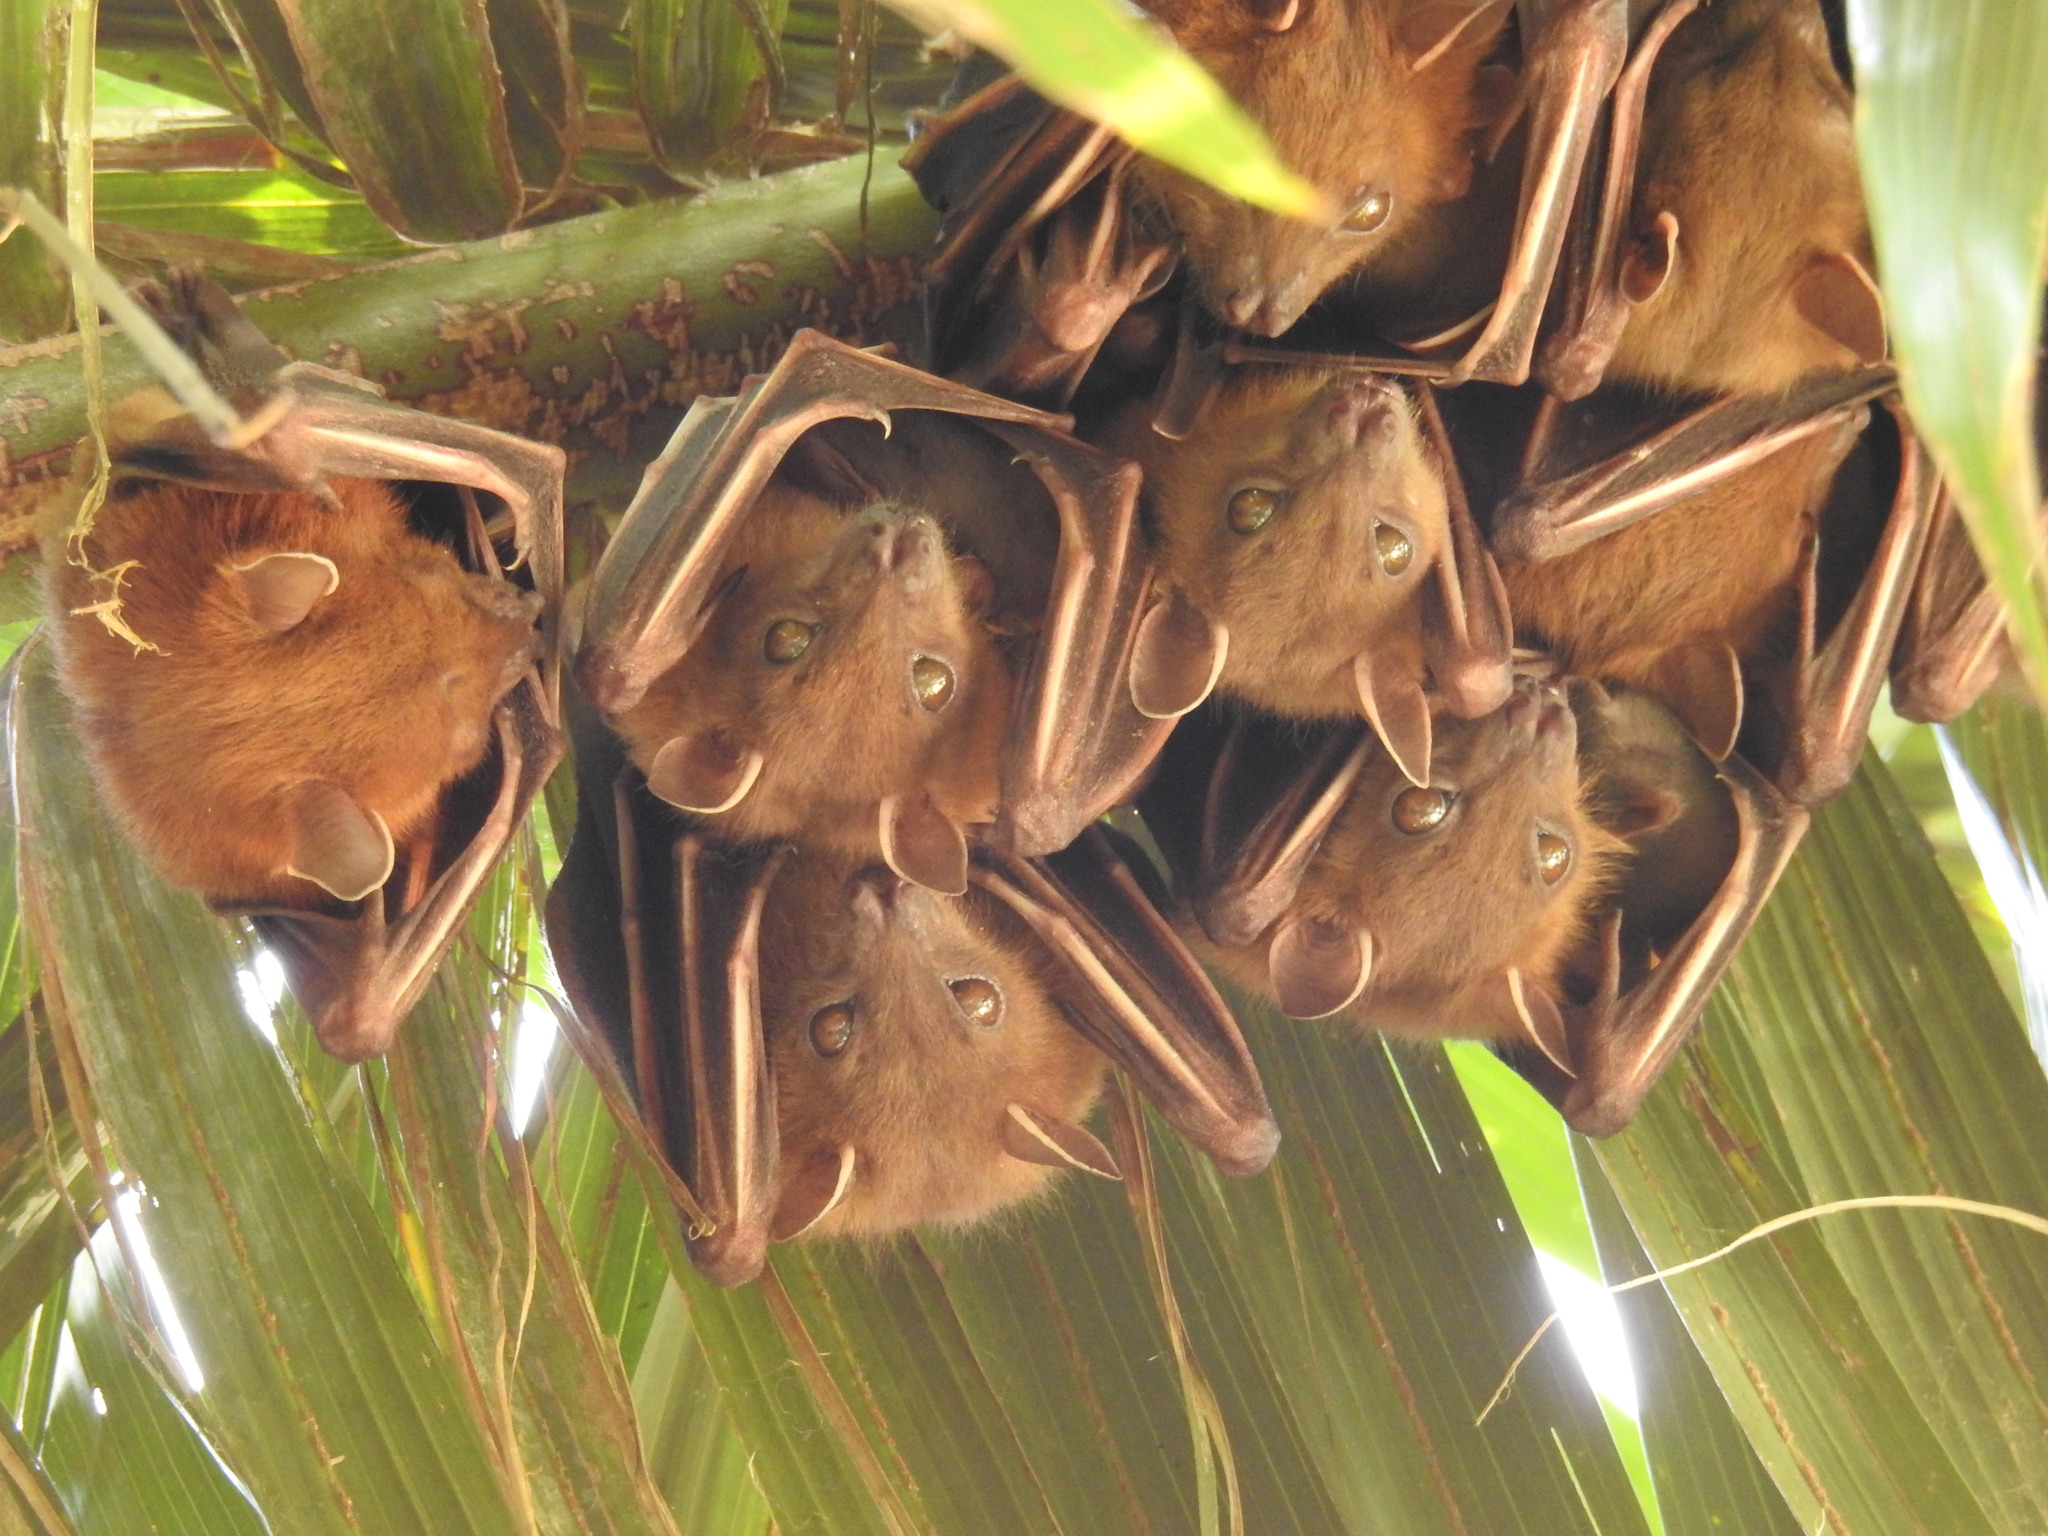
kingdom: Animalia
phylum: Chordata
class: Mammalia
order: Chiroptera
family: Pteropodidae
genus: Cynopterus
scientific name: Cynopterus sphinx
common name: Greater short-nosed fruit bat
